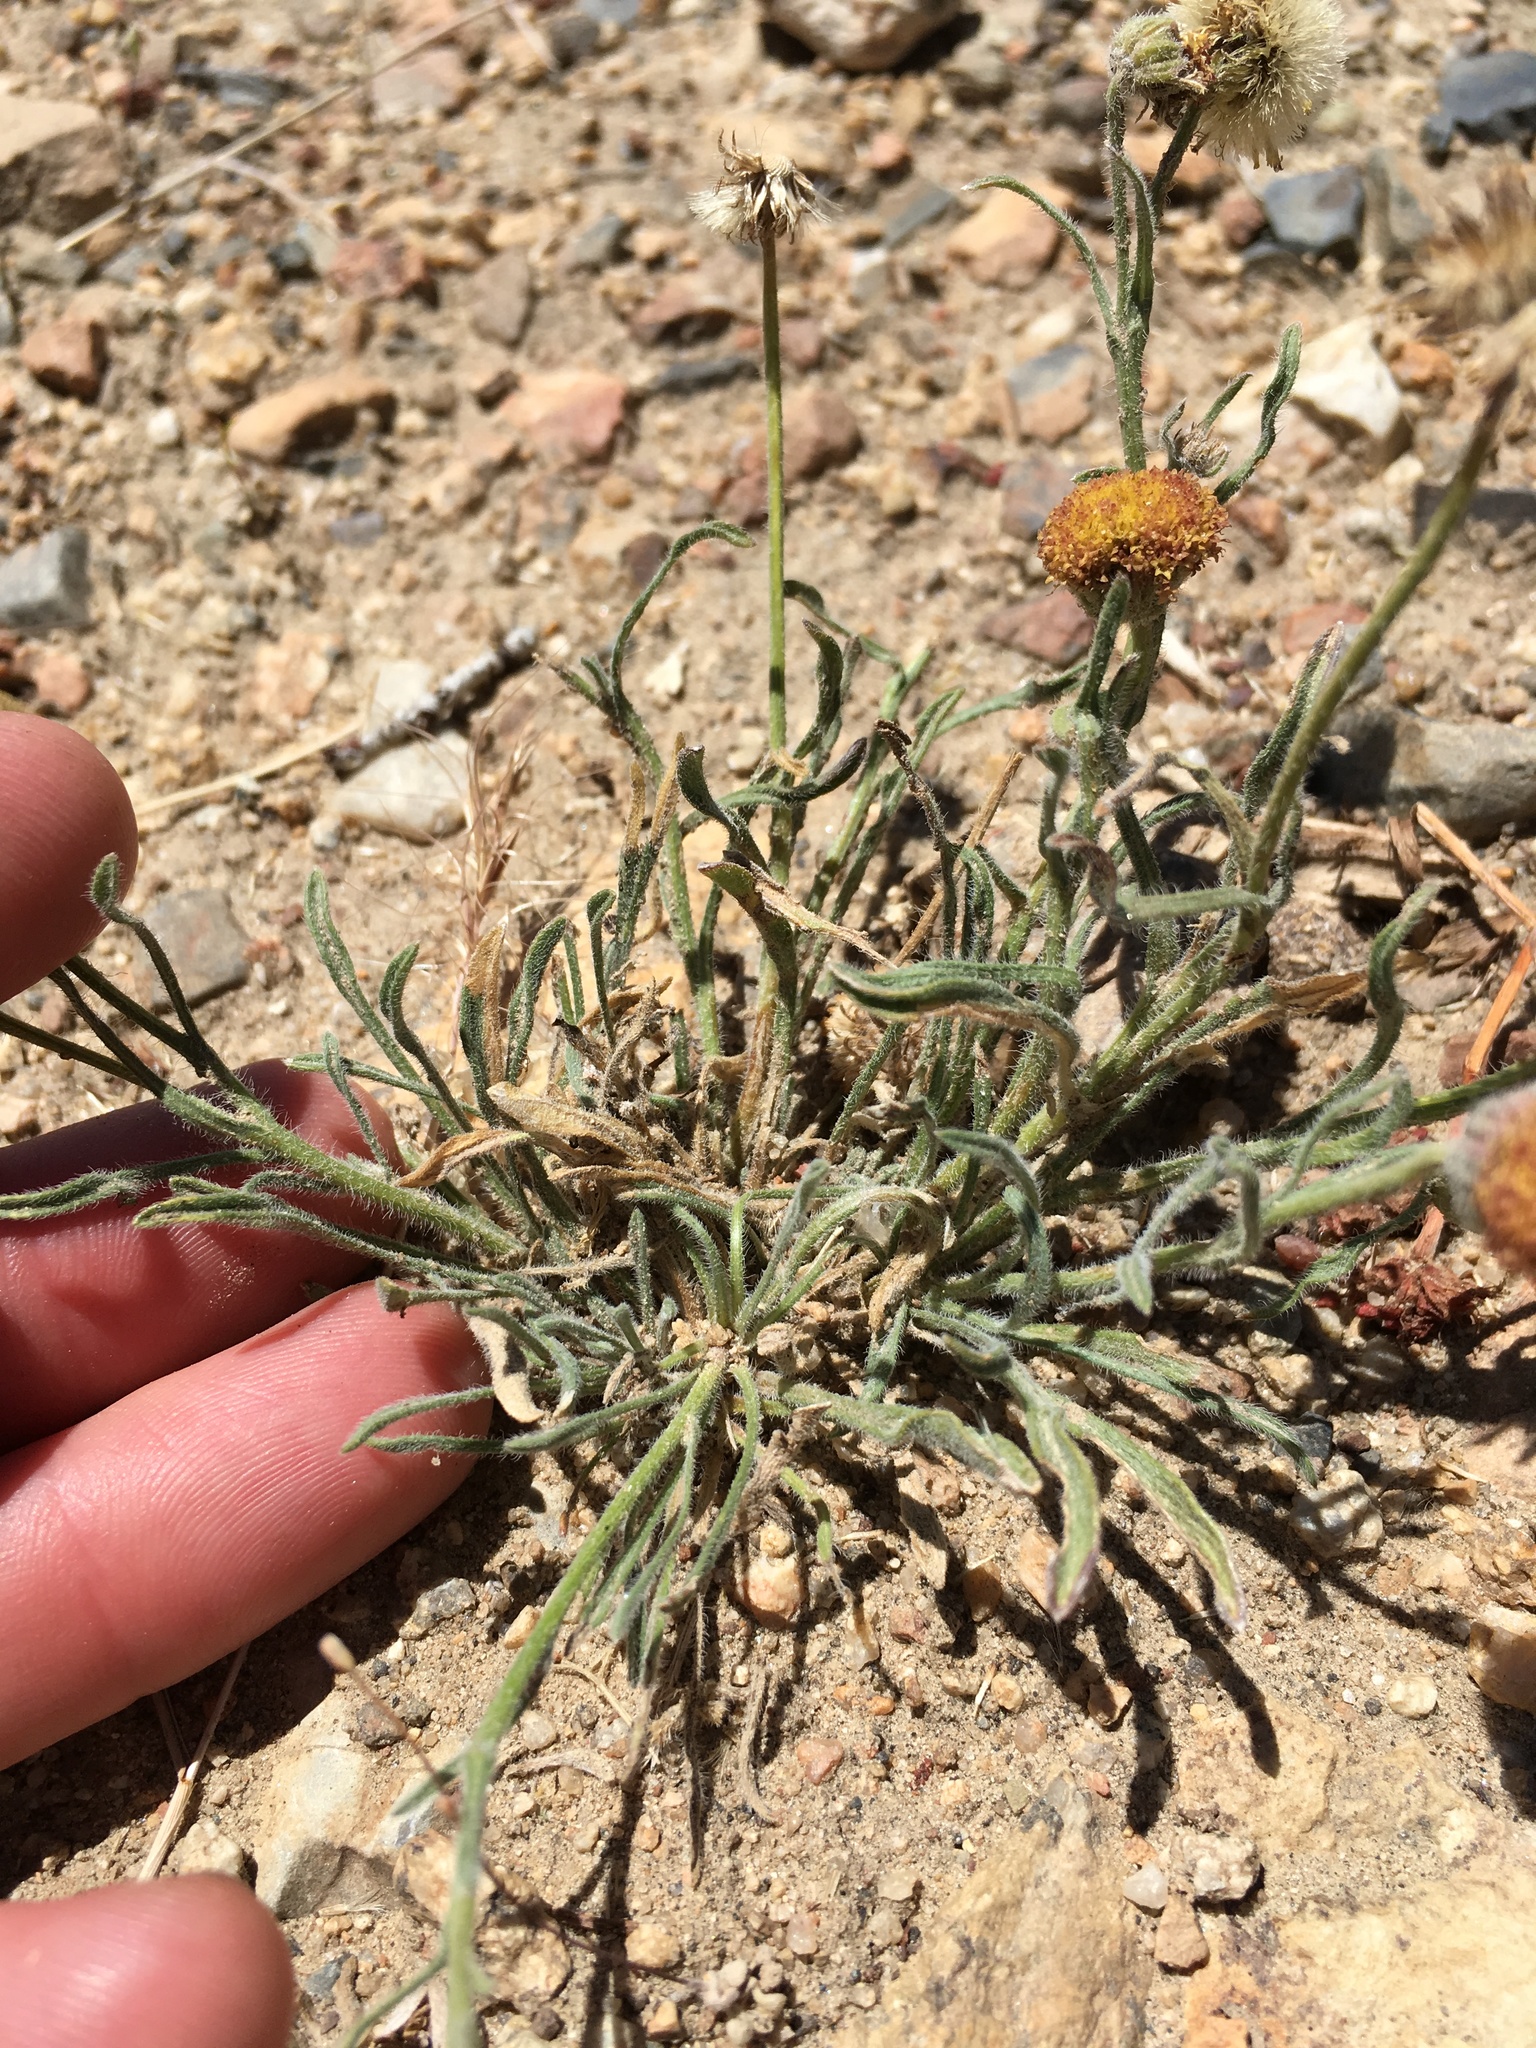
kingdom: Plantae
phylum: Tracheophyta
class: Magnoliopsida
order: Asterales
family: Asteraceae
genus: Erigeron
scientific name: Erigeron aphanactis
